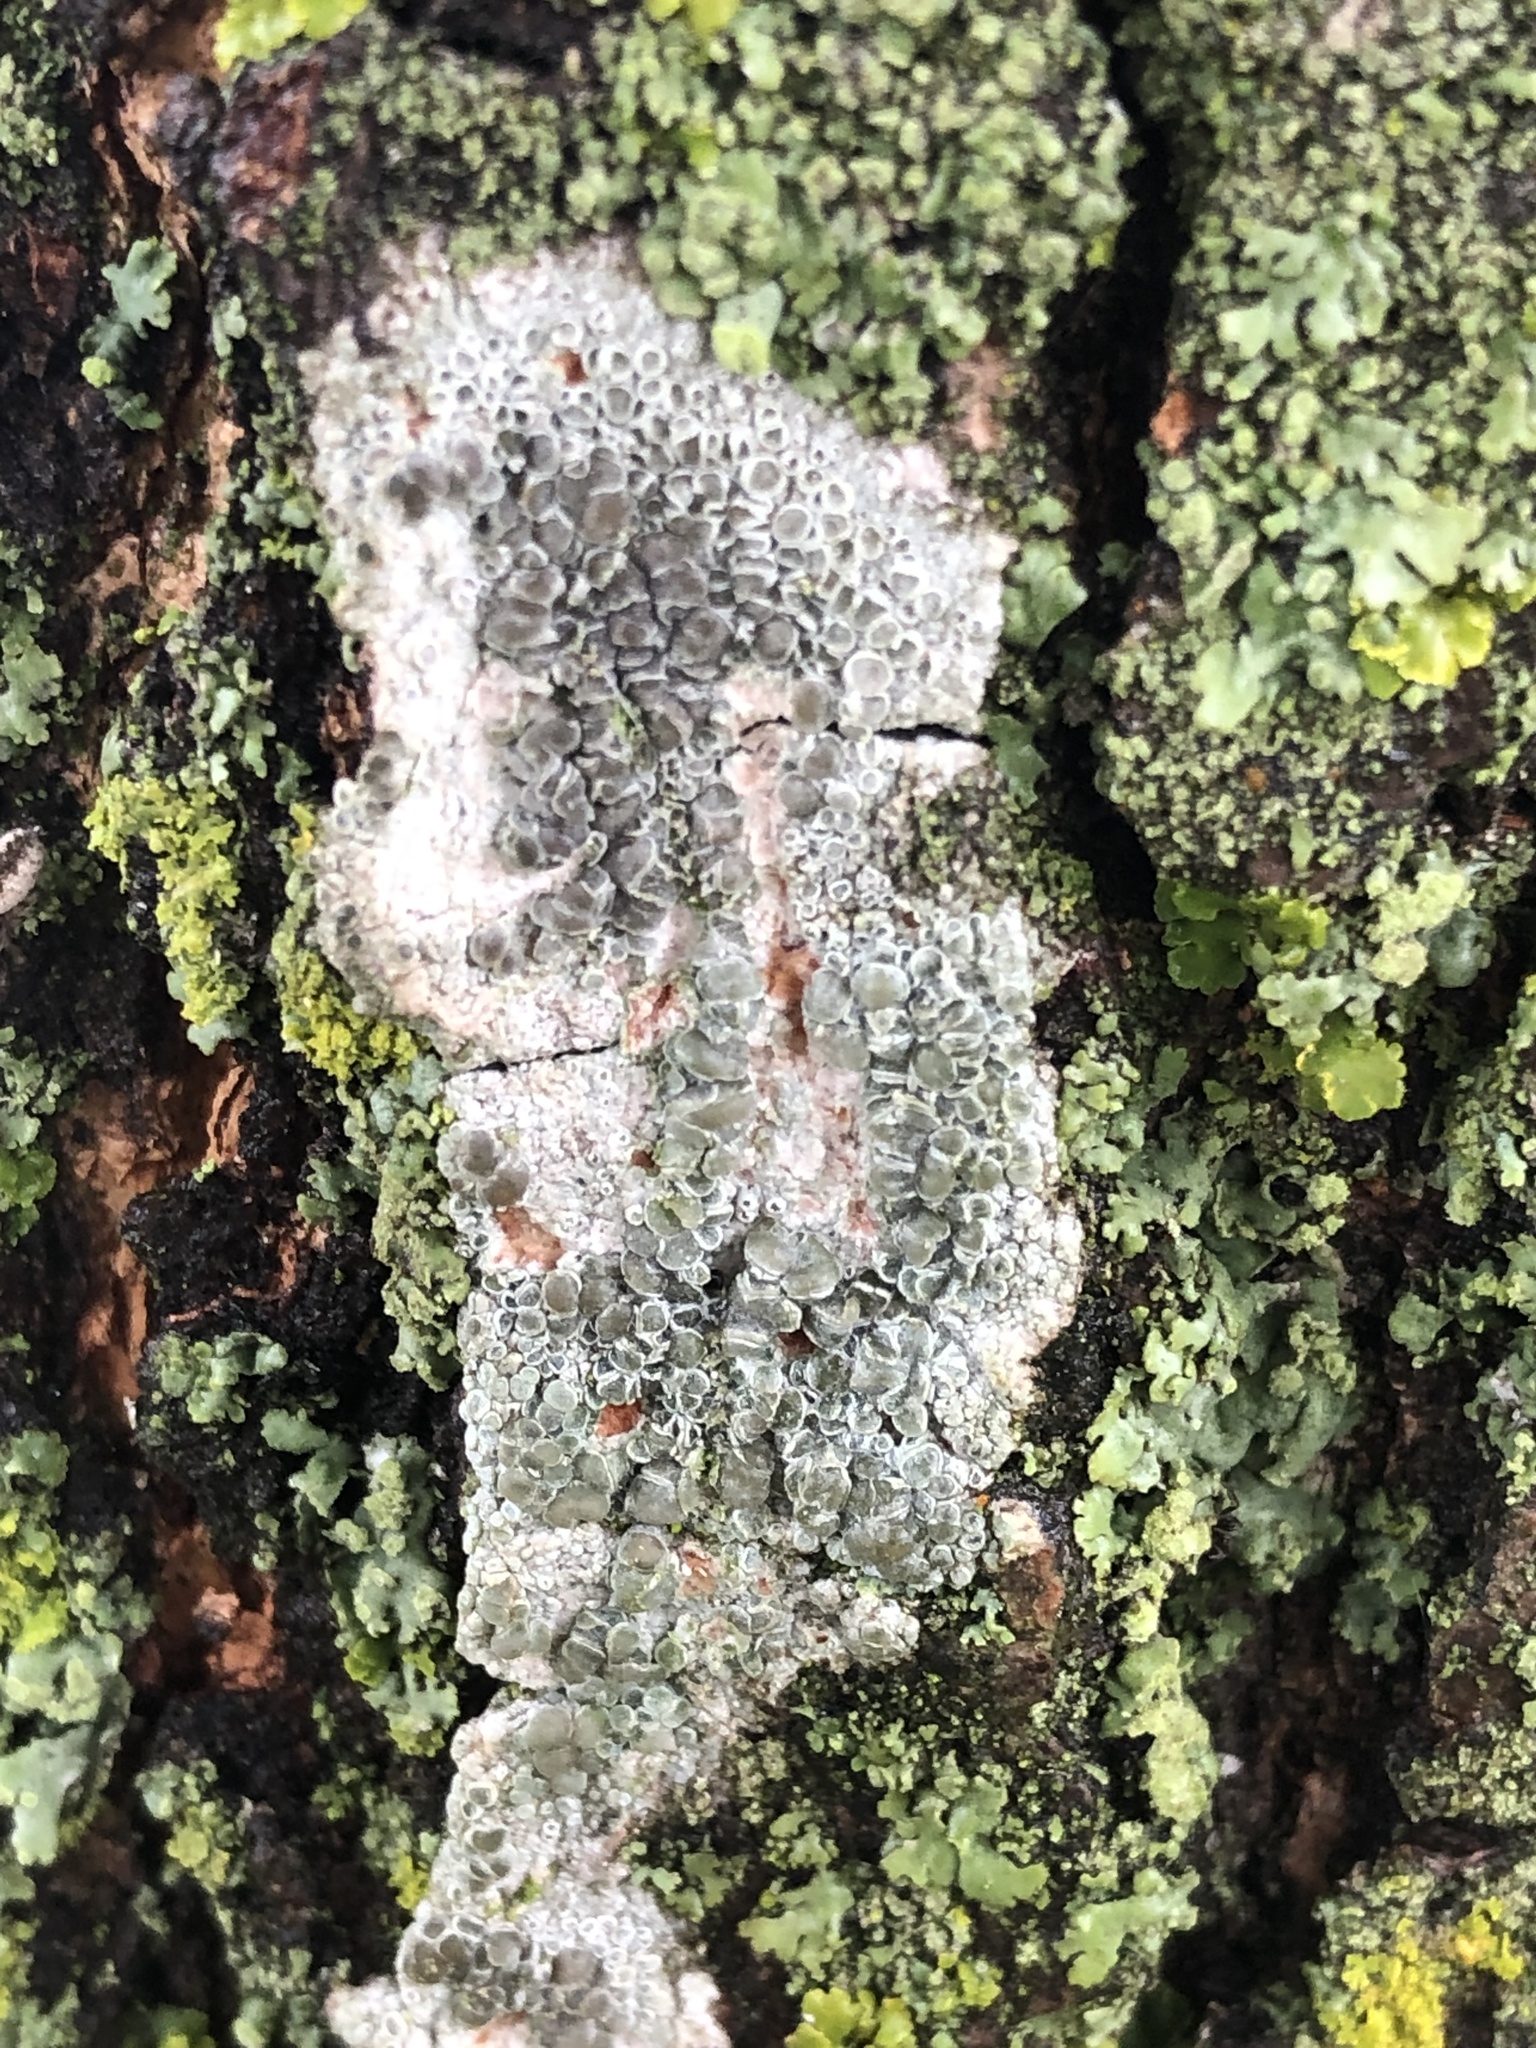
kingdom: Fungi
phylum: Ascomycota
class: Lecanoromycetes
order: Lecanorales
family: Lecanoraceae
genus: Lecanora
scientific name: Lecanora cenisia
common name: Smoky rim lichen
